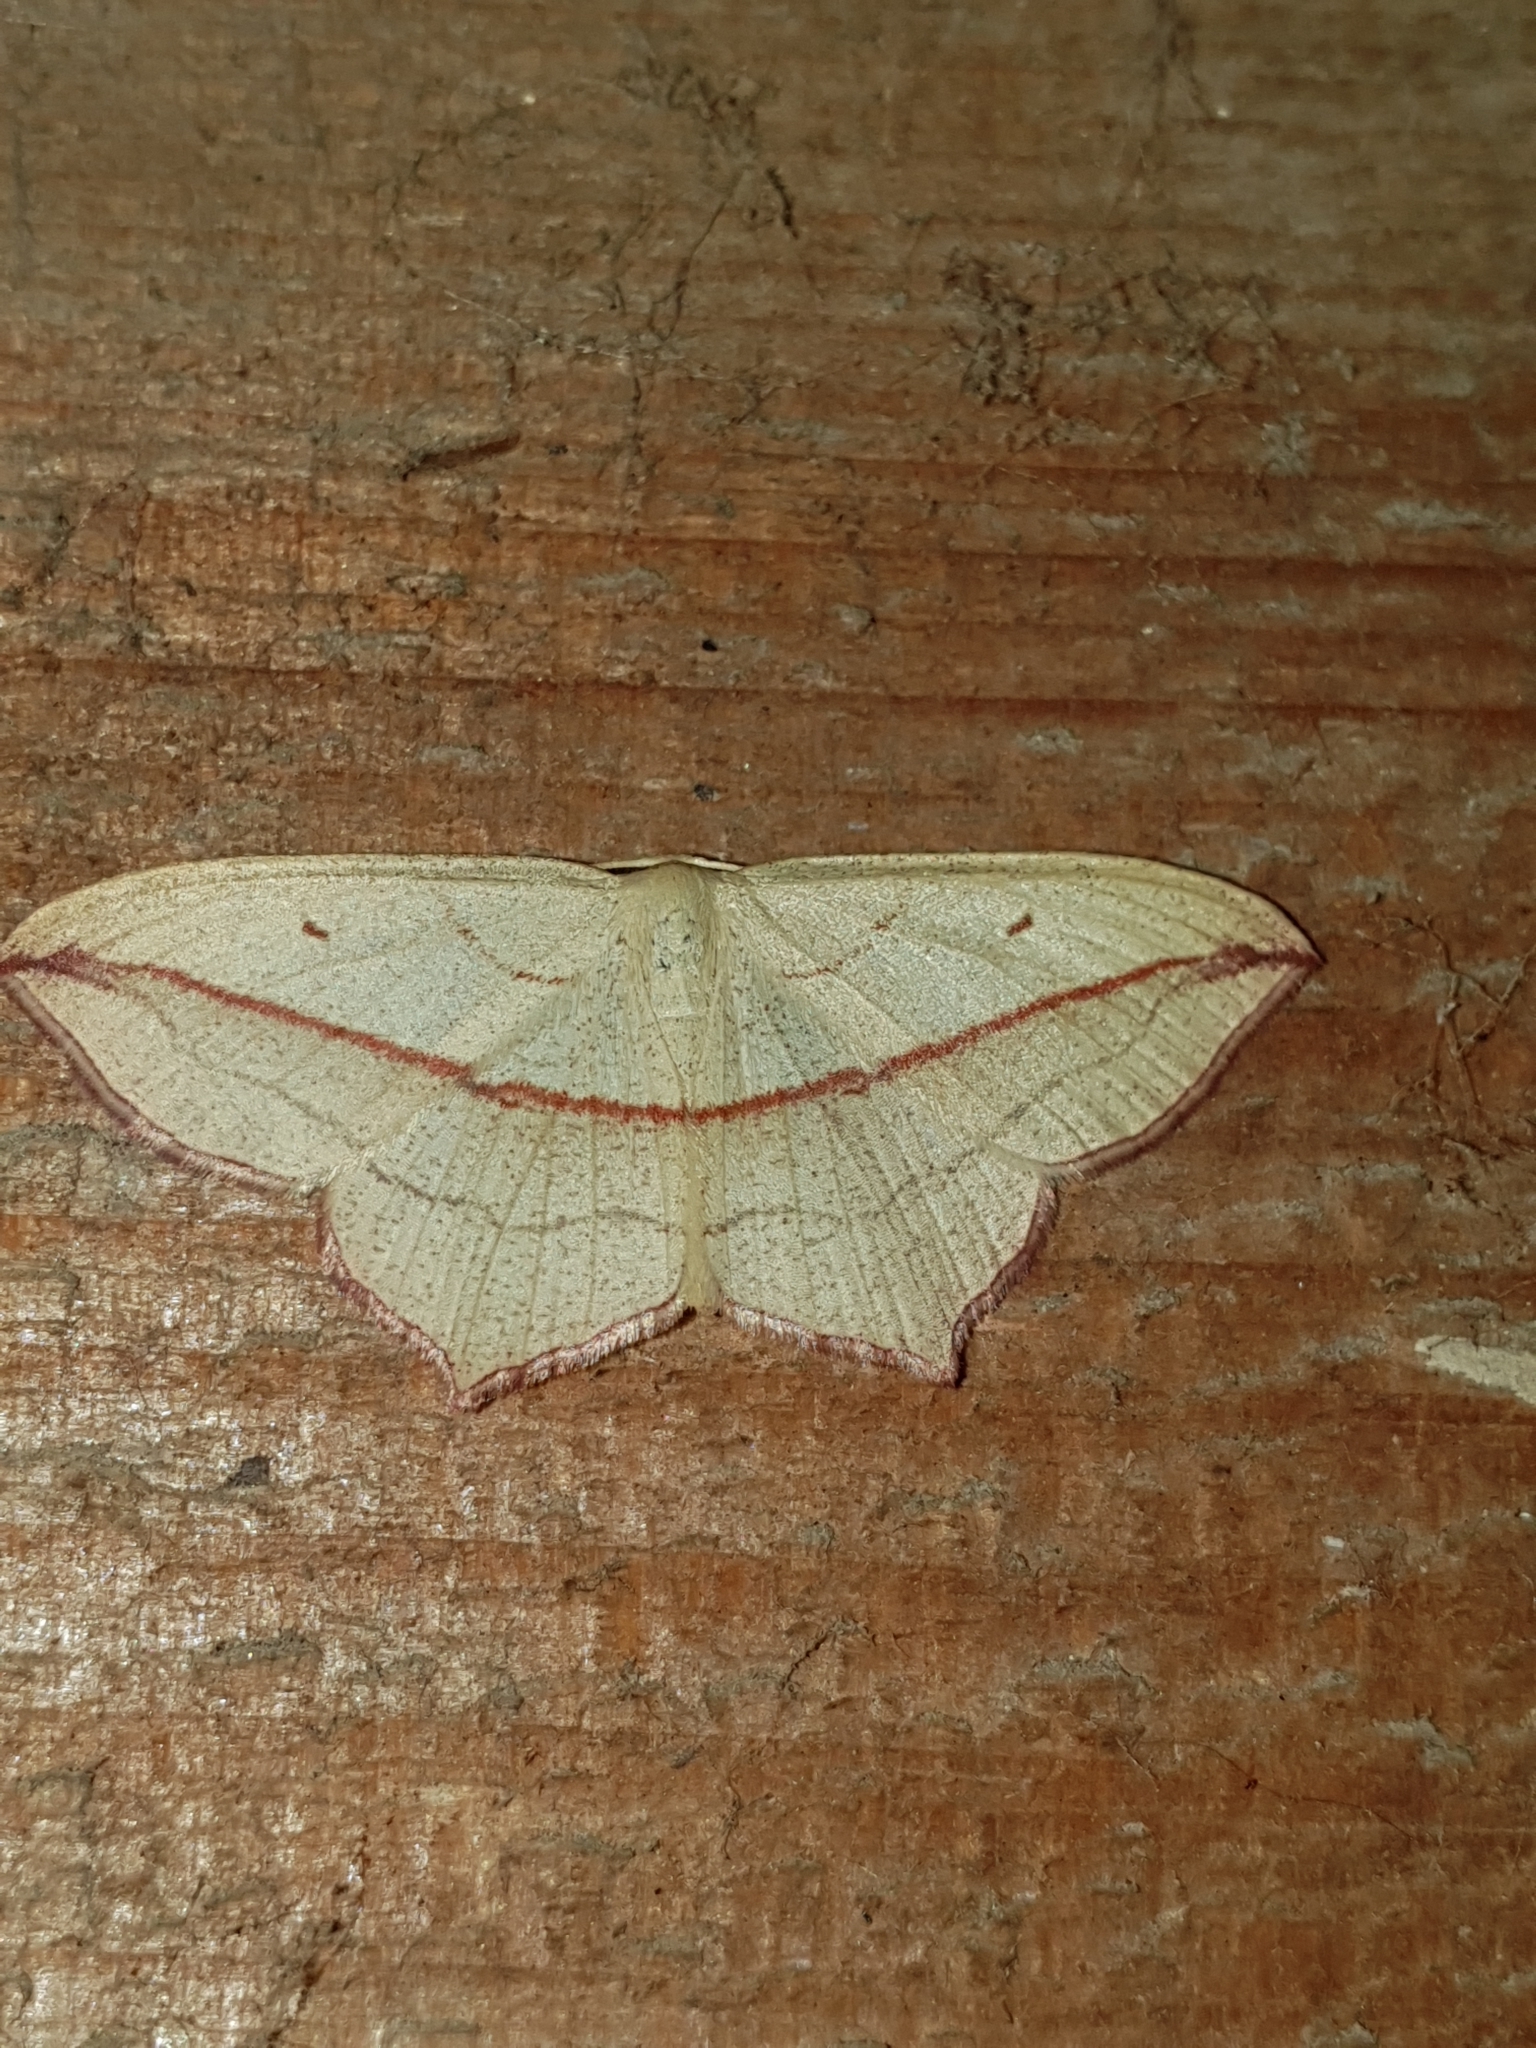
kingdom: Animalia
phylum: Arthropoda
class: Insecta
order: Lepidoptera
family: Geometridae
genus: Timandra
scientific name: Timandra comae
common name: Blood-vein
